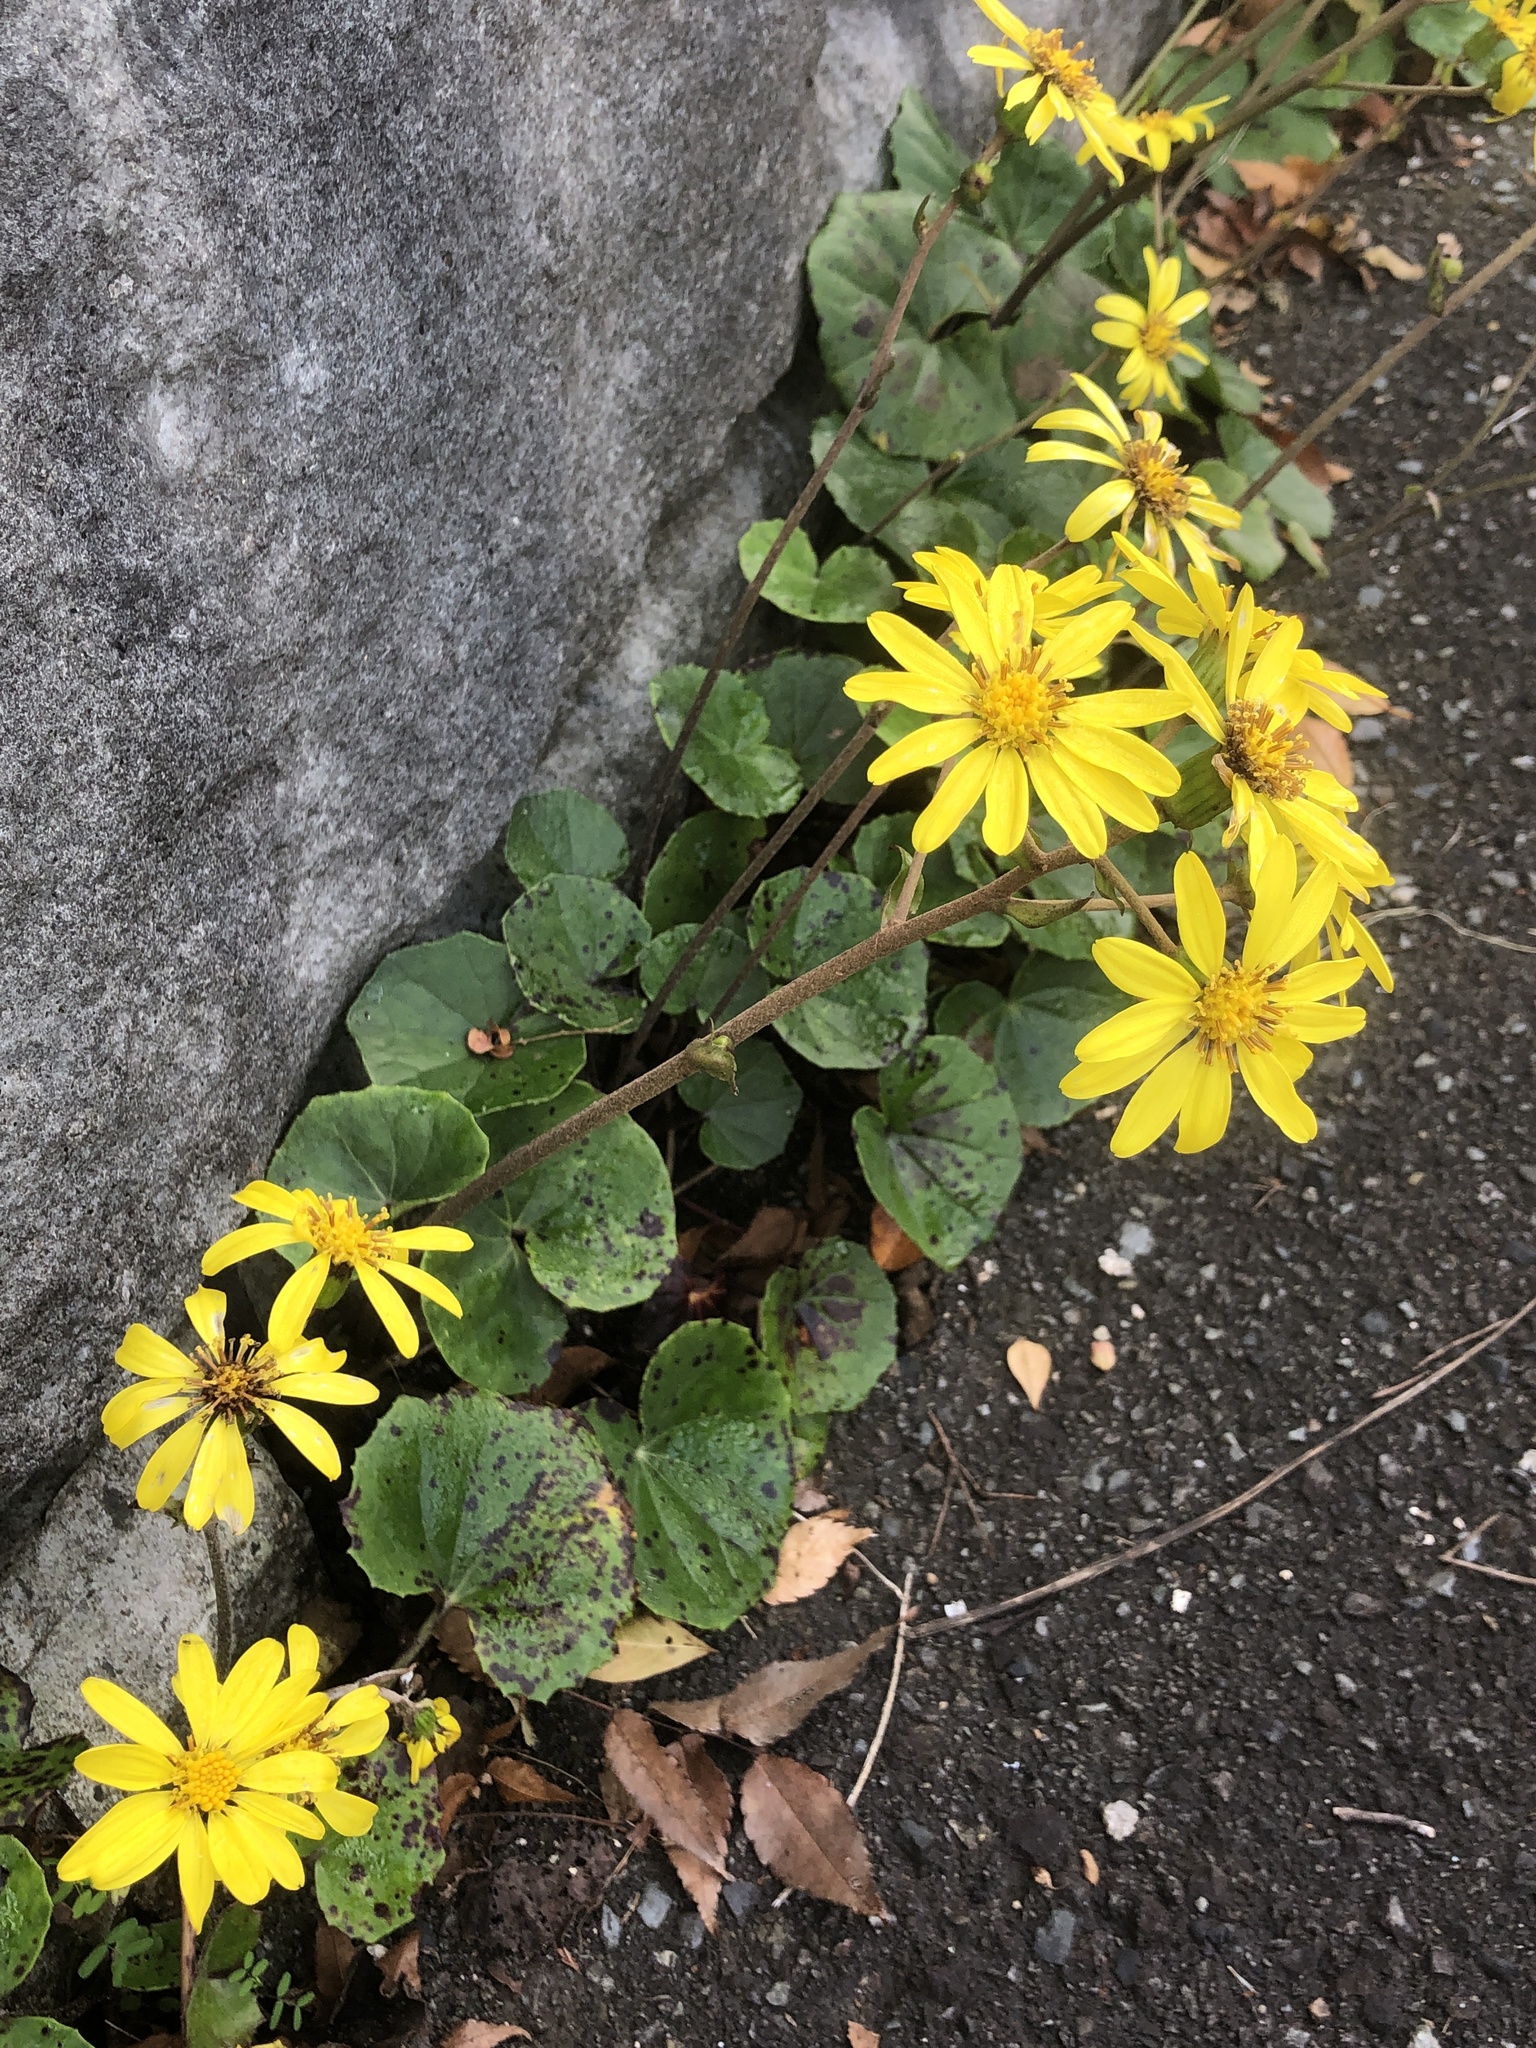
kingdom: Plantae
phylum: Tracheophyta
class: Magnoliopsida
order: Asterales
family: Asteraceae
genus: Farfugium
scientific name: Farfugium japonicum
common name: Leopardplant
